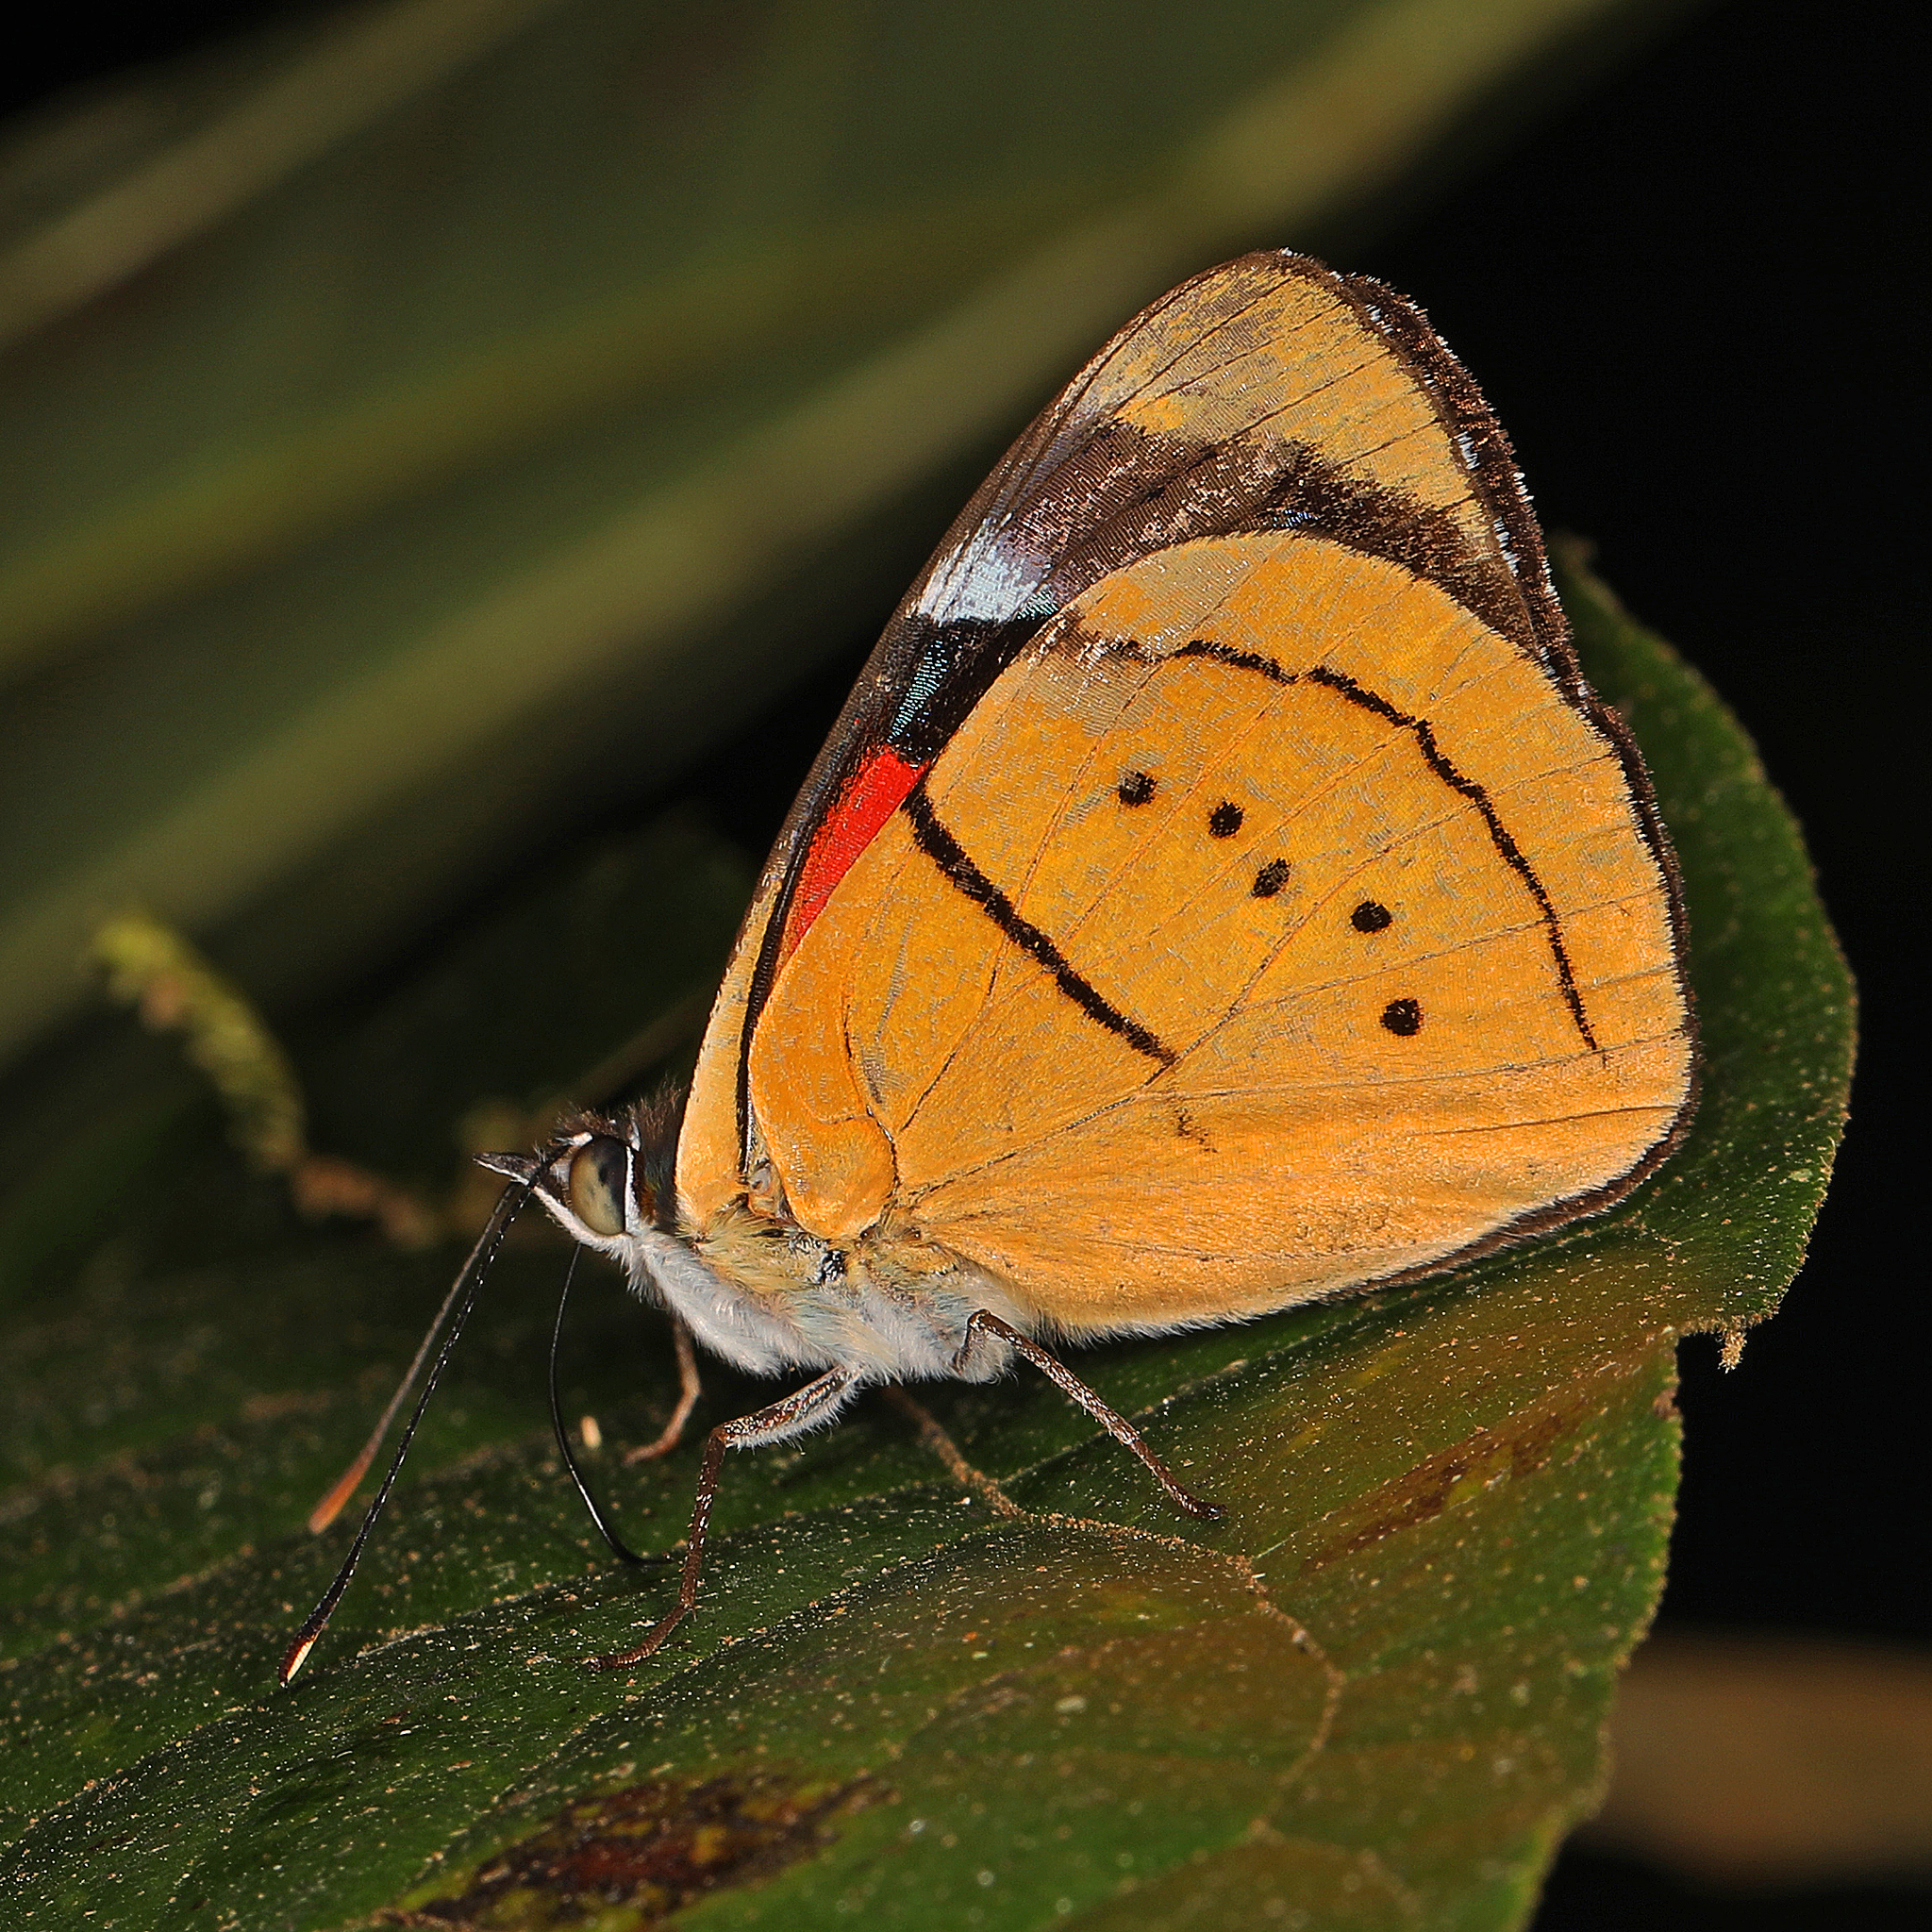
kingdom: Animalia
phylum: Arthropoda
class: Insecta
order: Lepidoptera
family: Nymphalidae
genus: Perisama
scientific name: Perisama humboldtii
